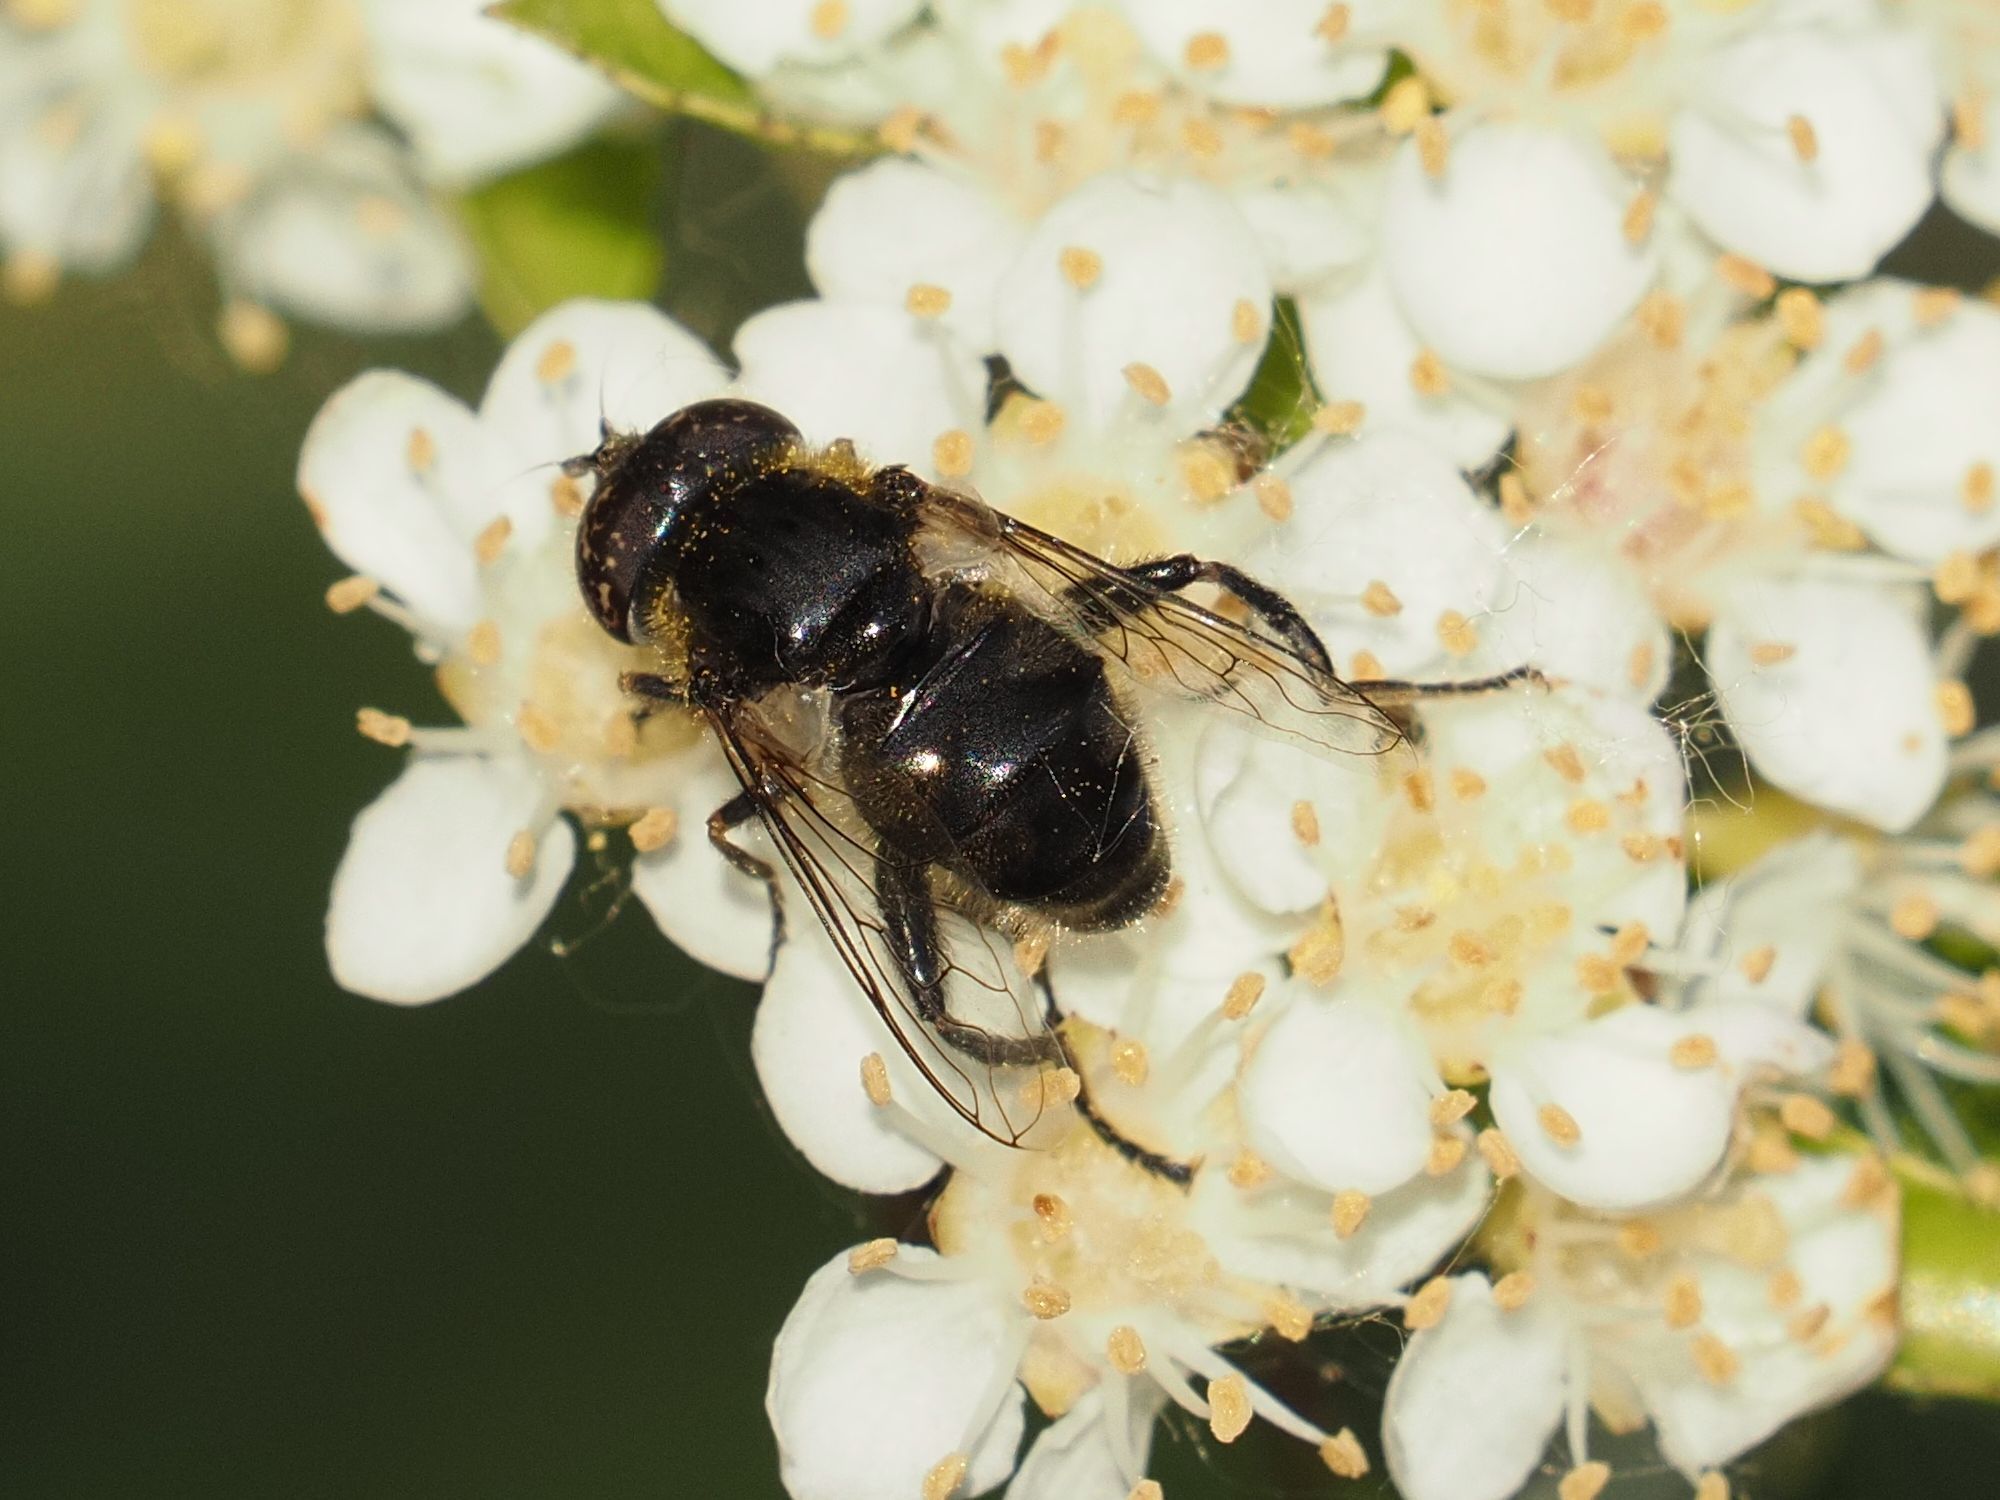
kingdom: Animalia
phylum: Arthropoda
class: Insecta
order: Diptera
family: Syrphidae
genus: Eristalinus
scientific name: Eristalinus sepulchralis
